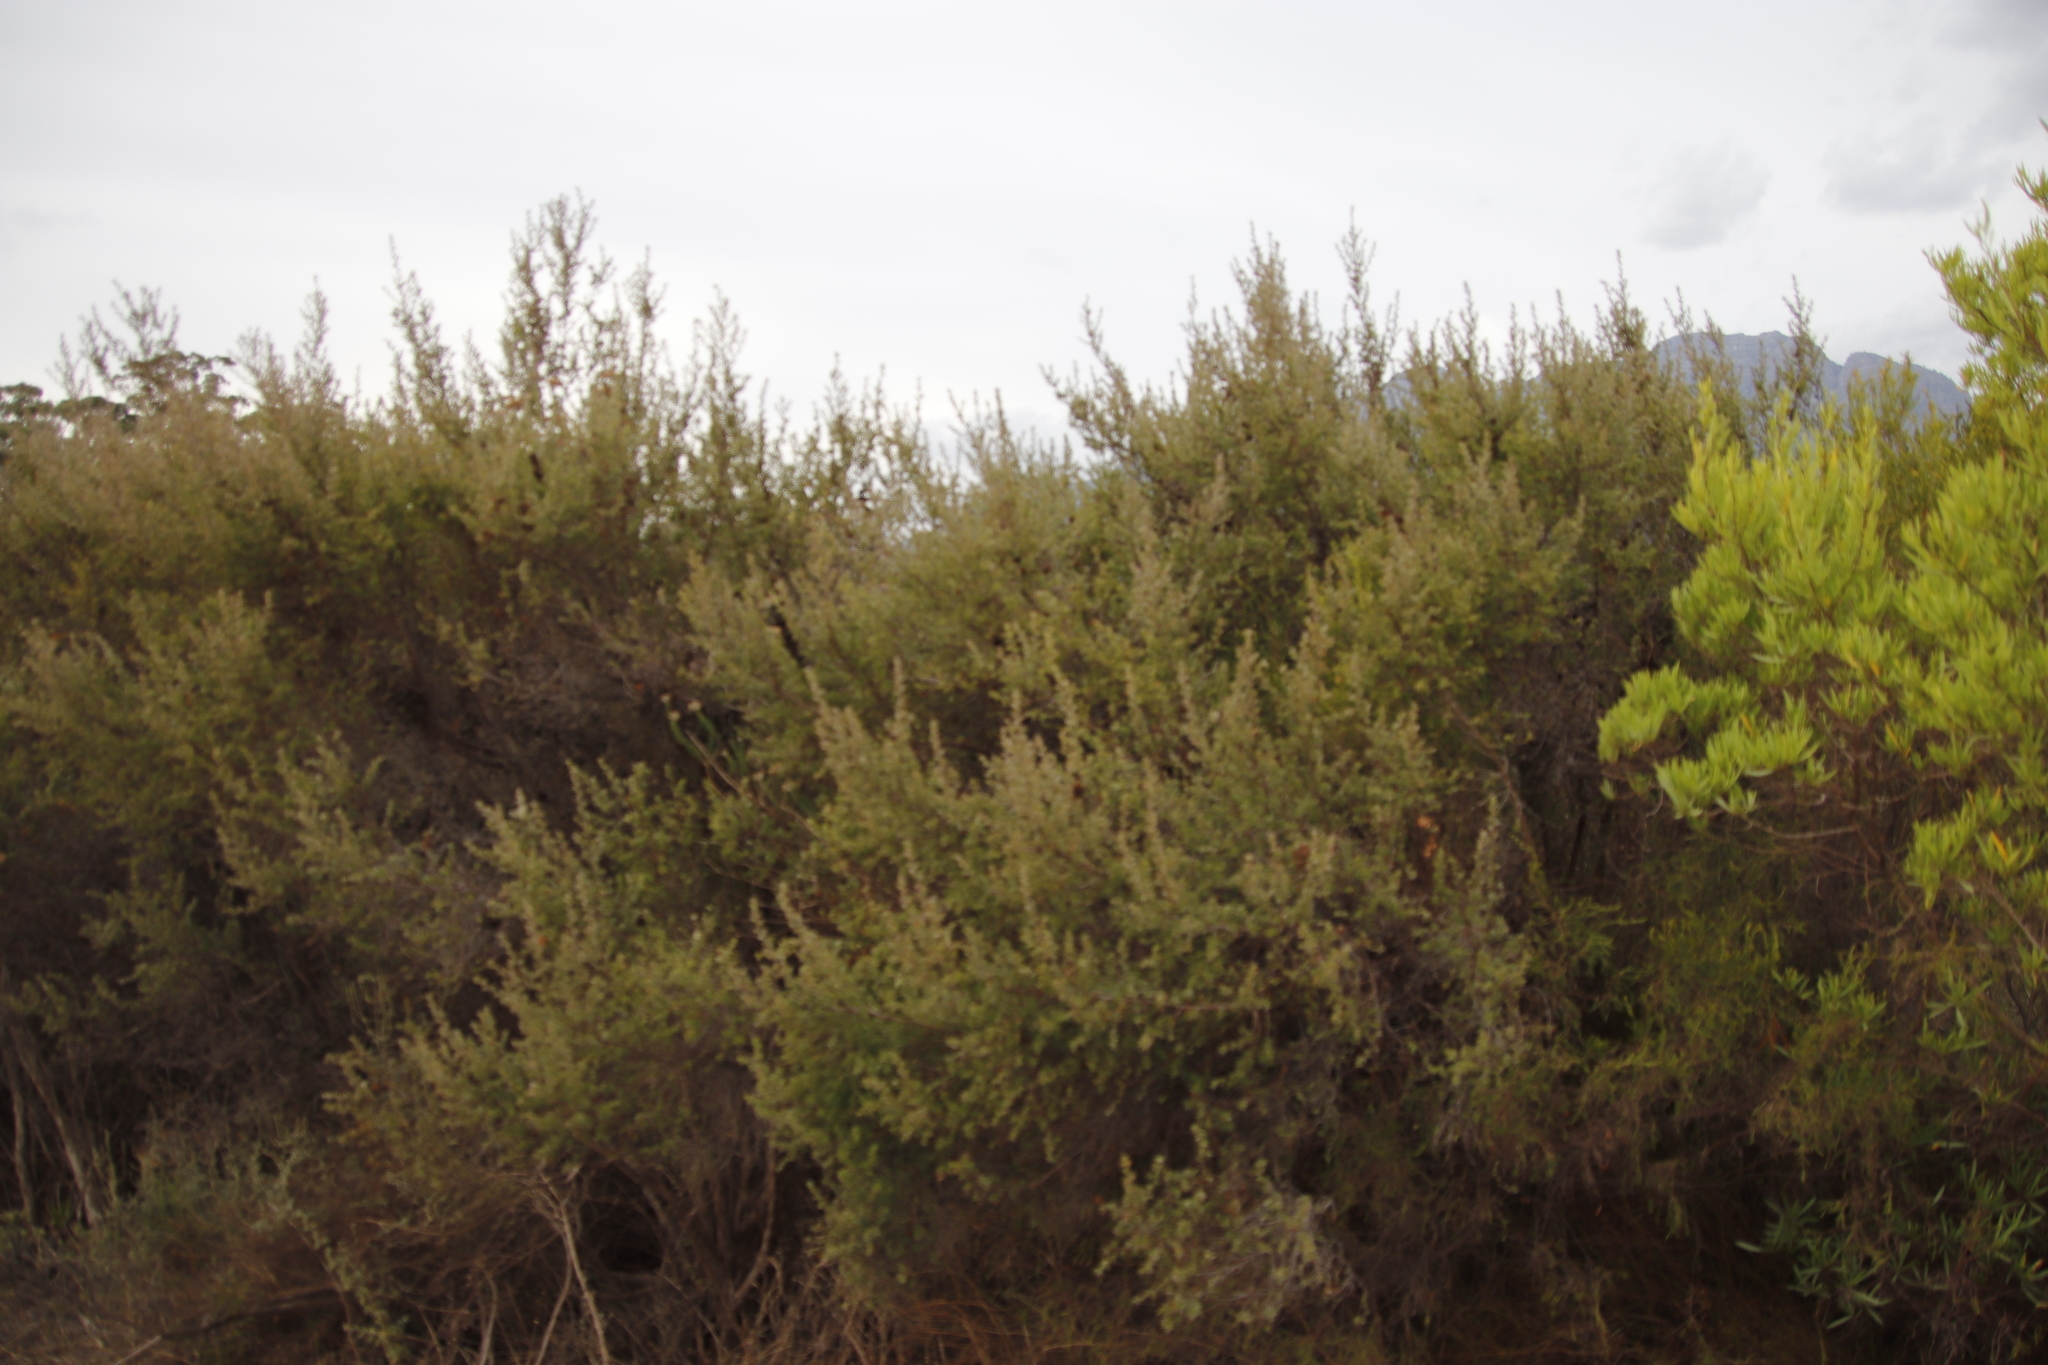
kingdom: Plantae
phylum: Tracheophyta
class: Magnoliopsida
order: Rosales
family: Rosaceae
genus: Cliffortia
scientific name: Cliffortia ruscifolia
